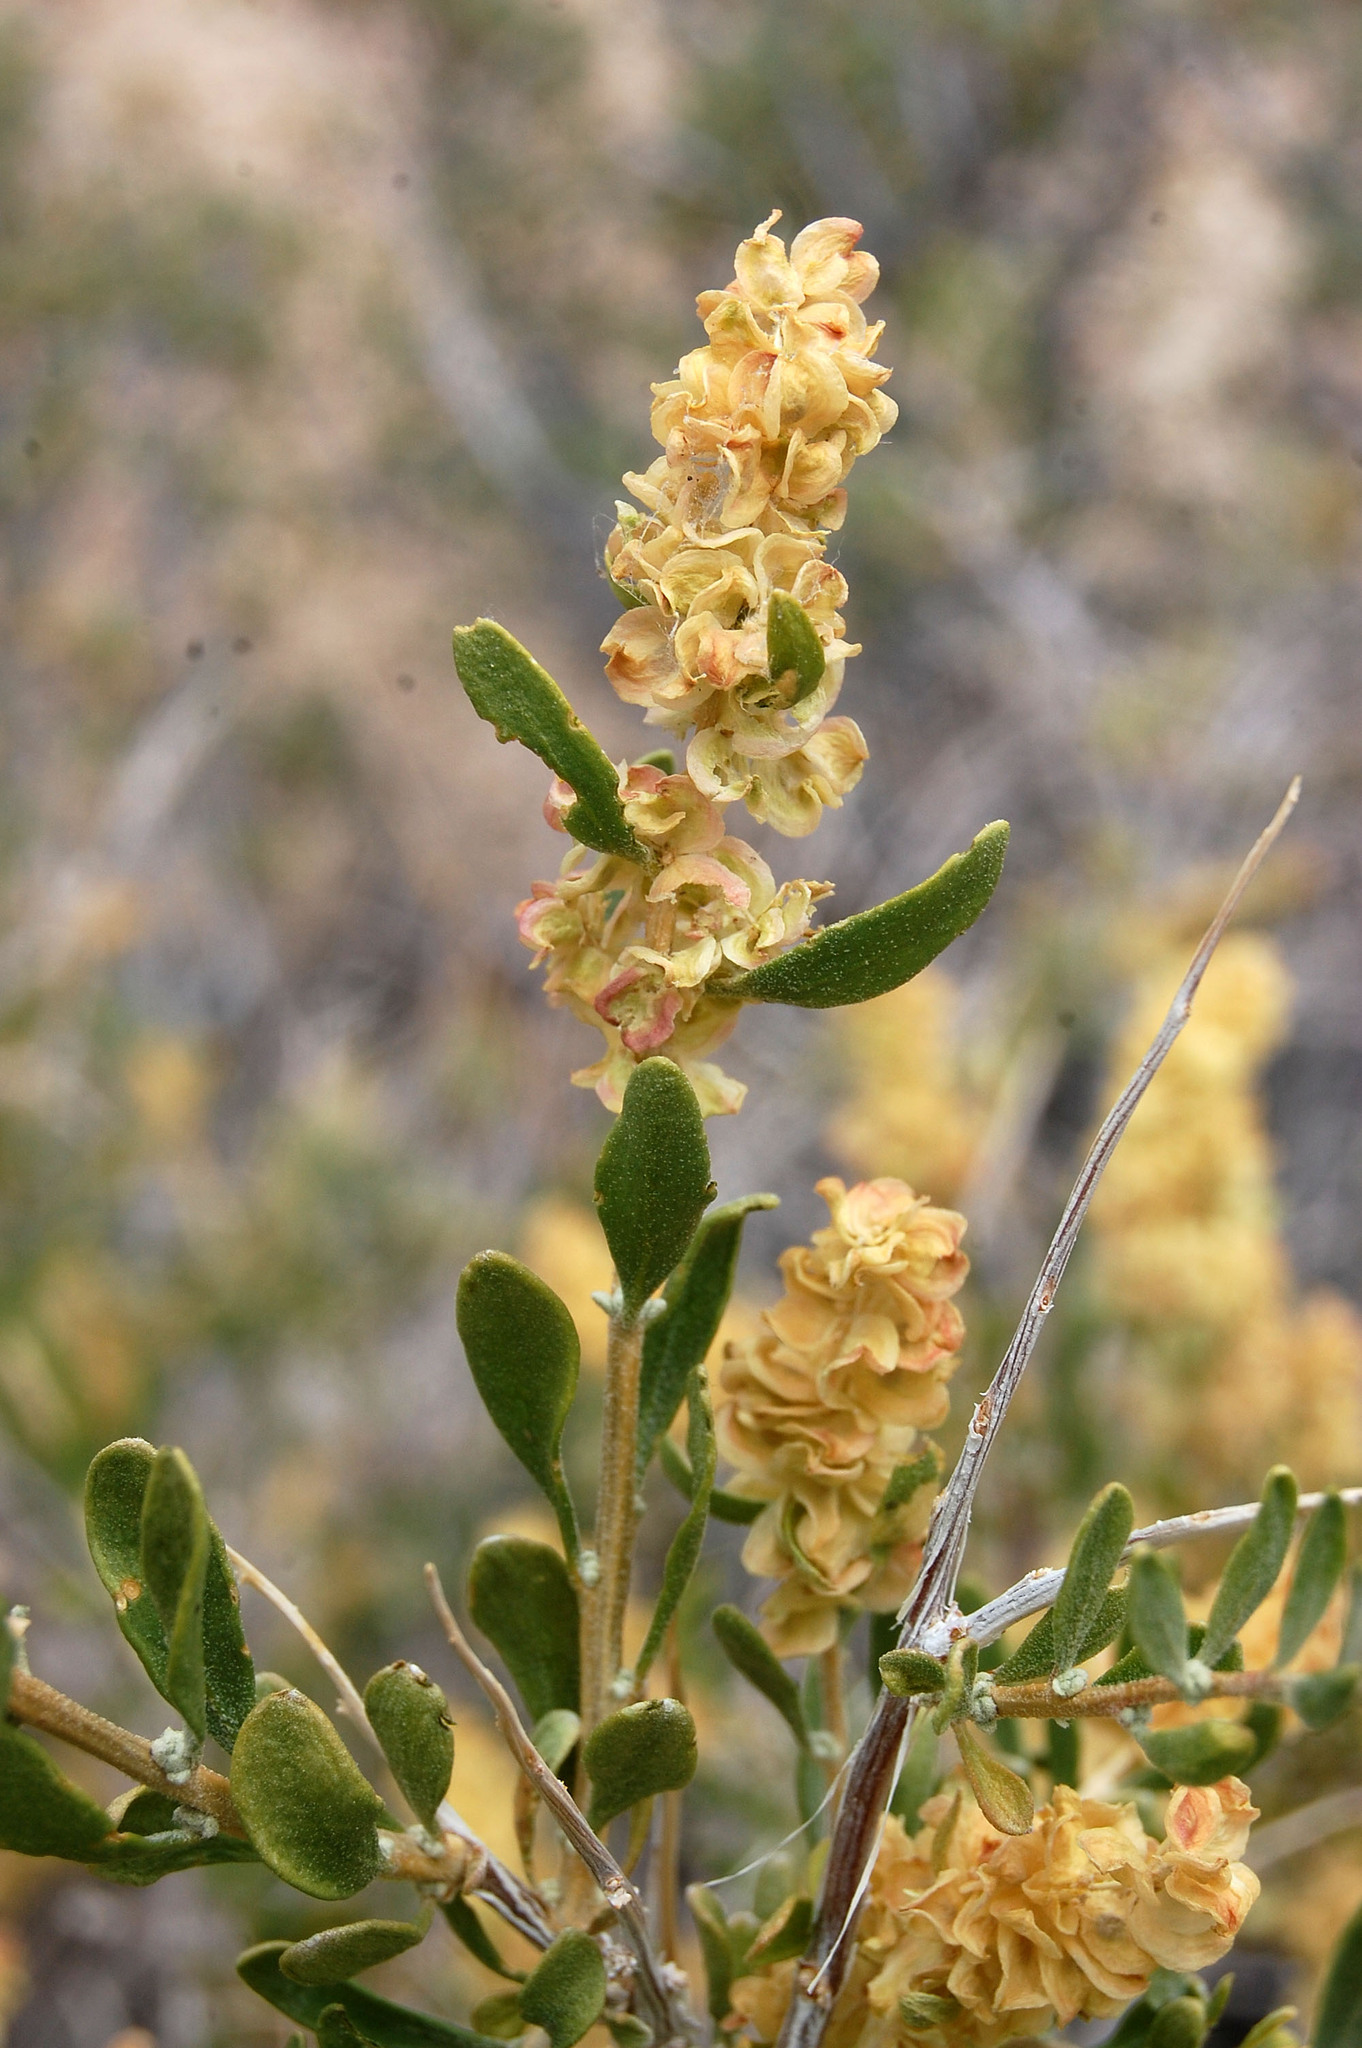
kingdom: Plantae
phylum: Tracheophyta
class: Magnoliopsida
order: Caryophyllales
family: Amaranthaceae
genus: Grayia
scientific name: Grayia spinosa
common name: Spiny hopsage
